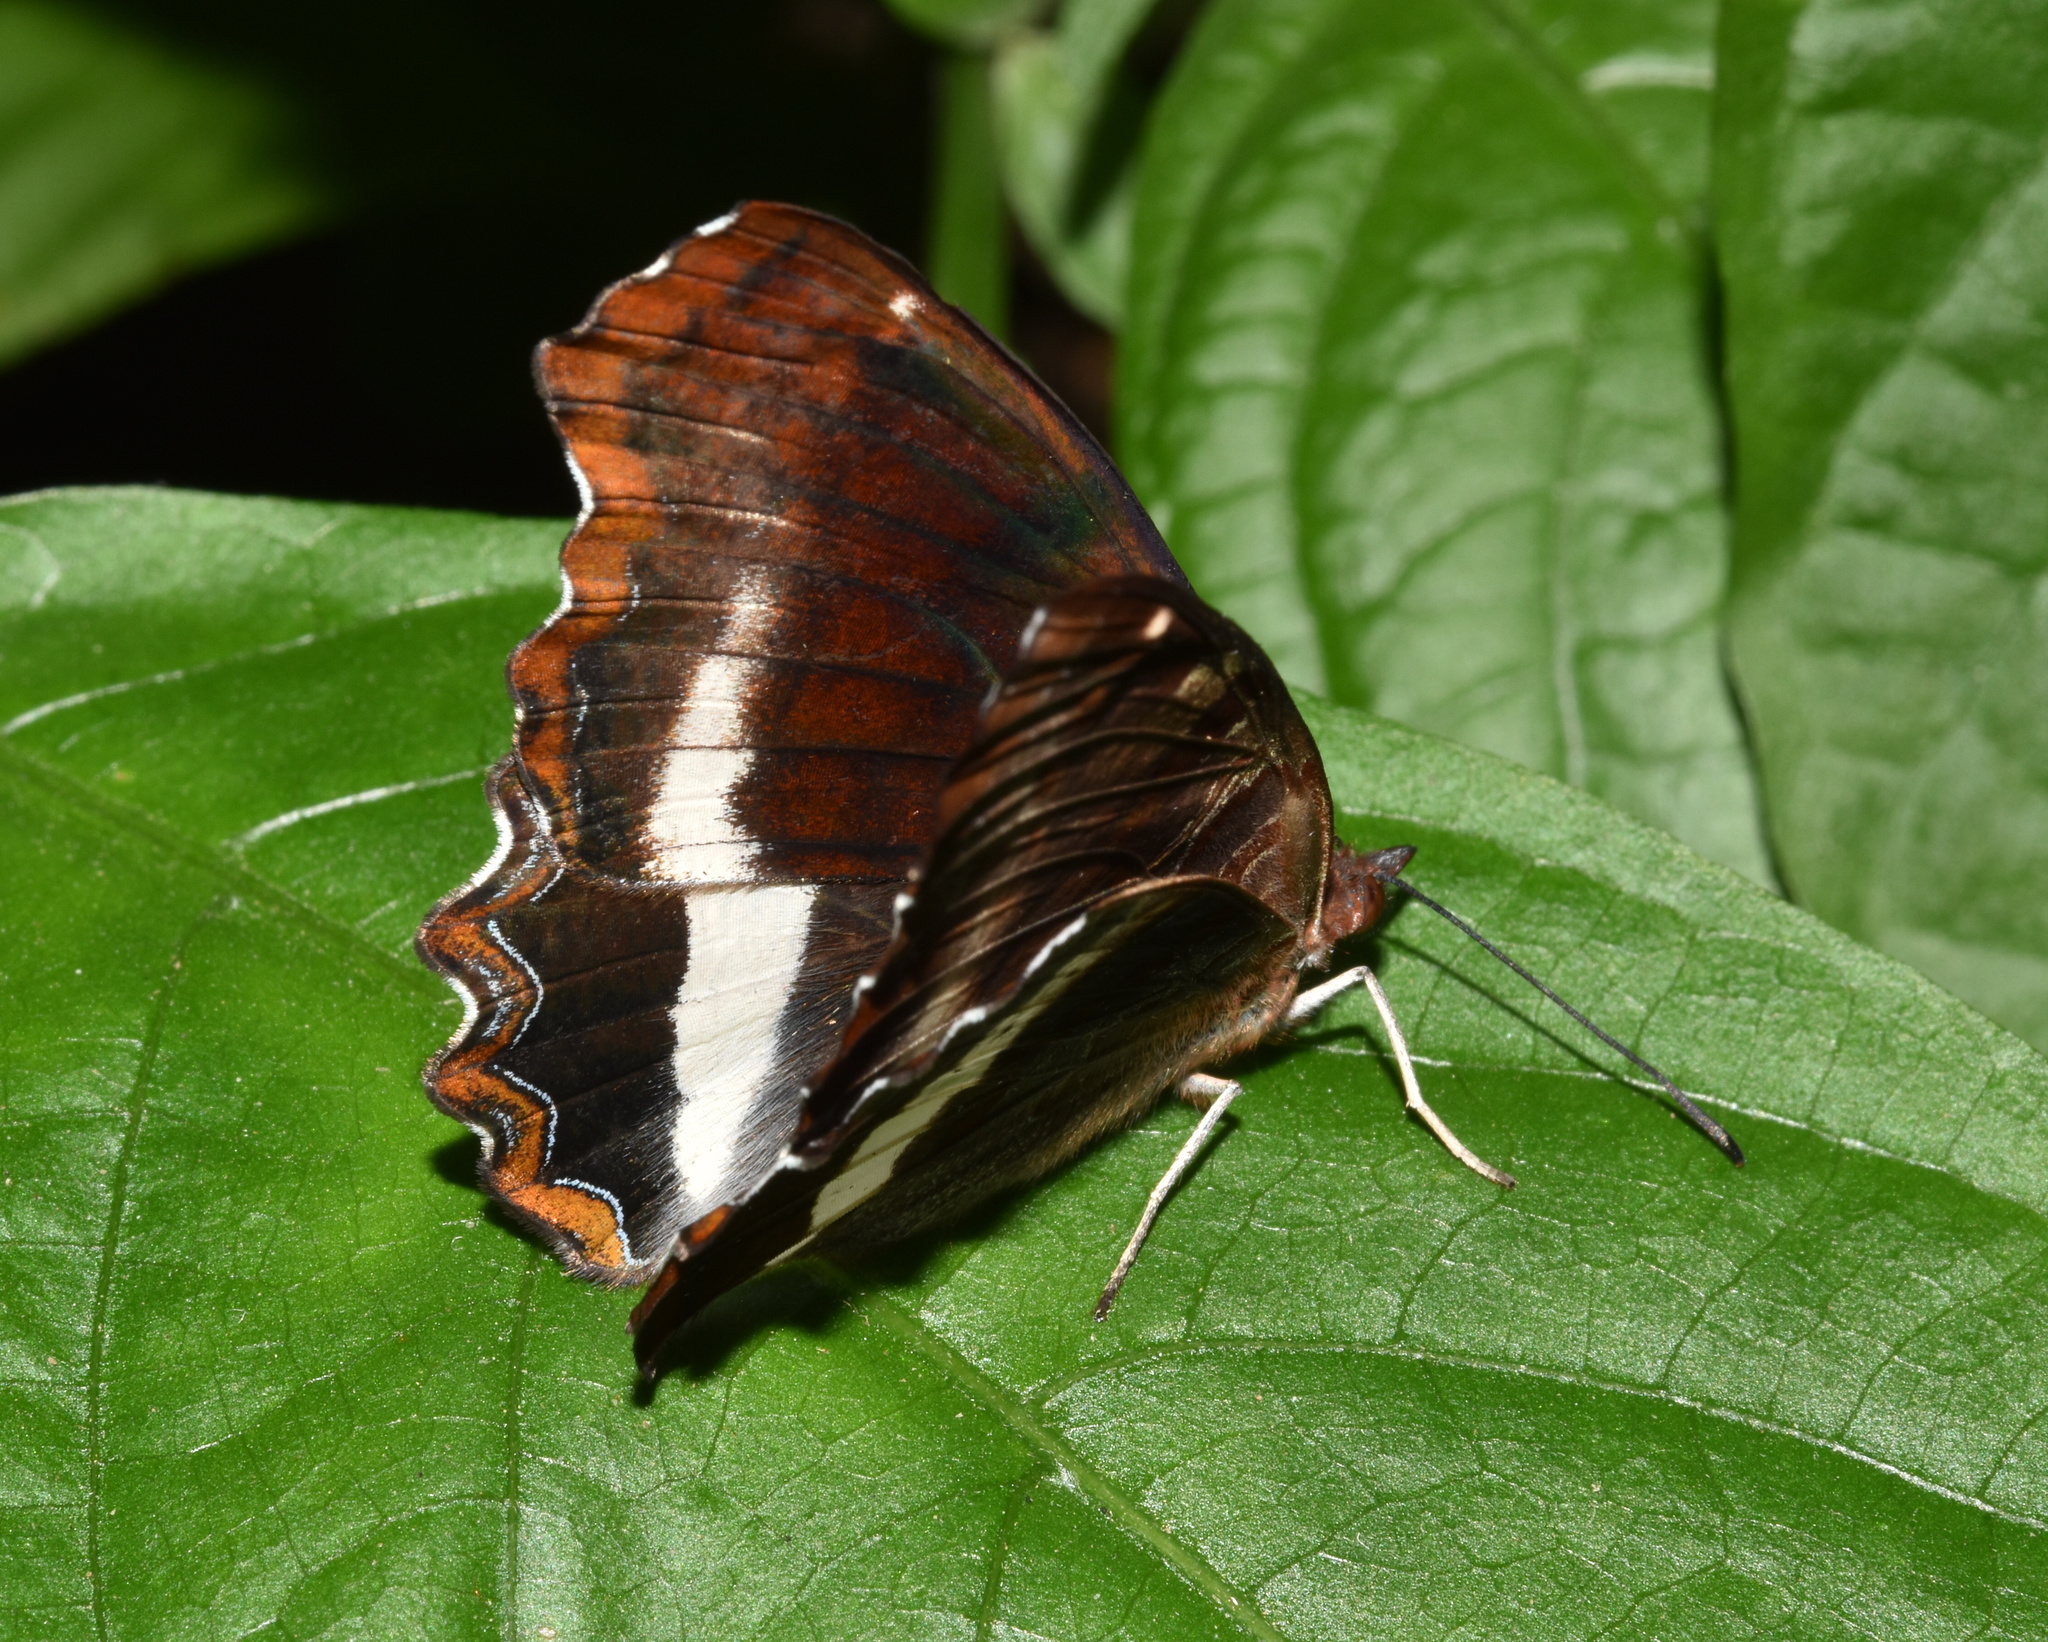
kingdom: Animalia
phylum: Arthropoda
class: Insecta
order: Lepidoptera
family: Nymphalidae
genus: Eurytela
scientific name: Eurytela hiarbas
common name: Pied piper
